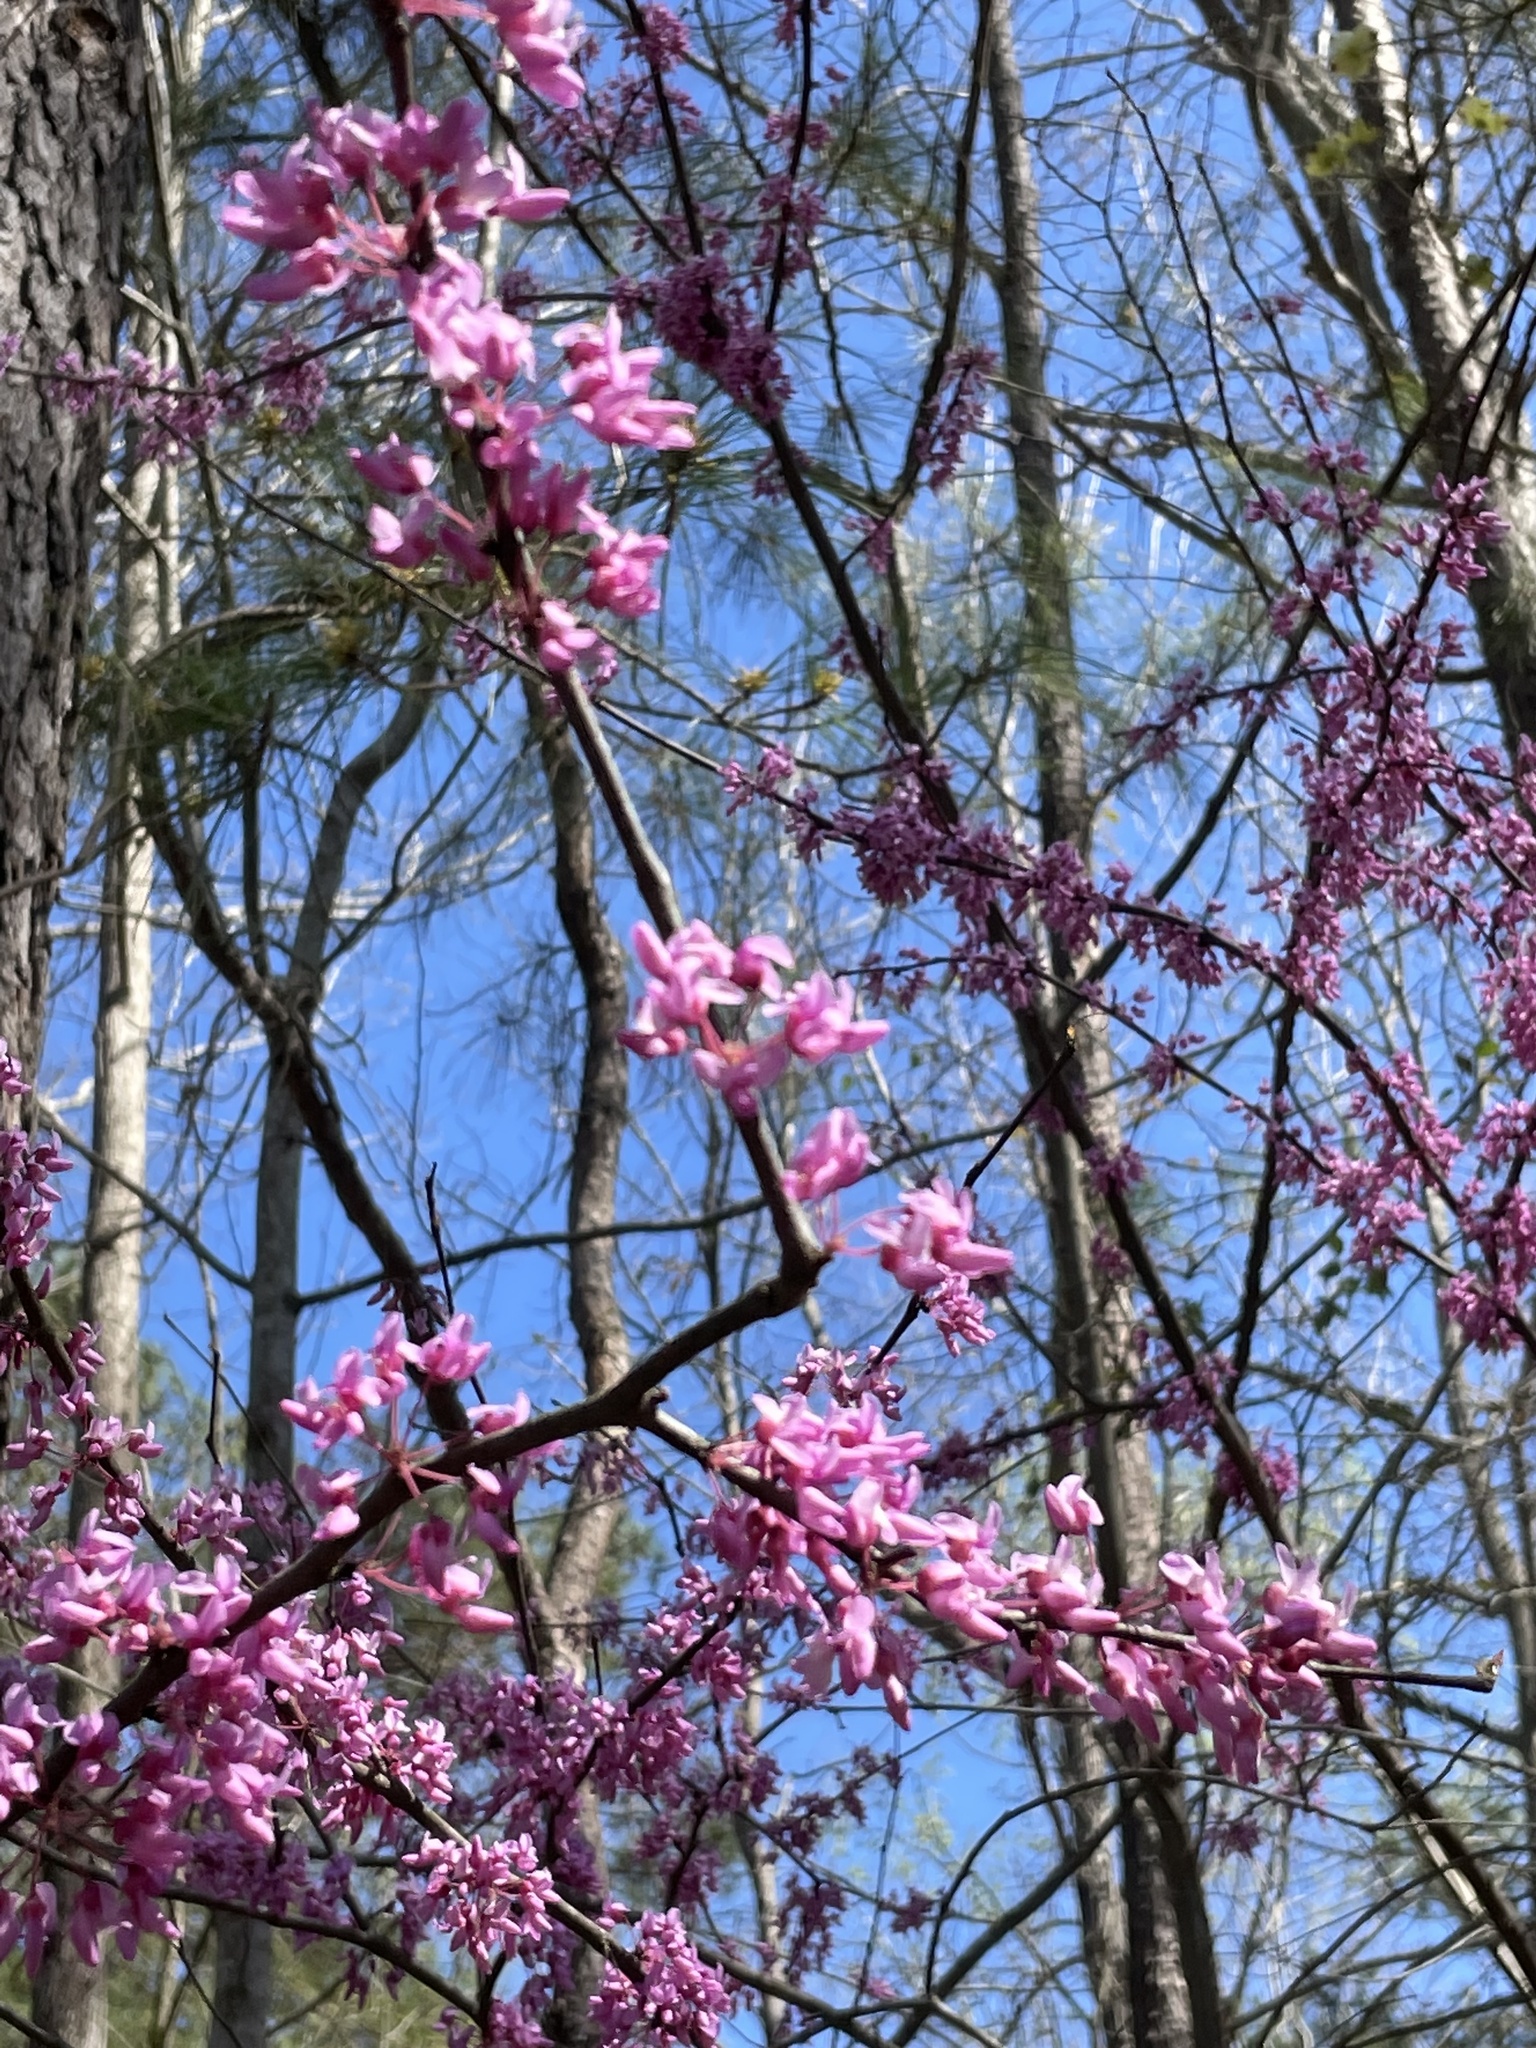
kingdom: Plantae
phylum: Tracheophyta
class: Magnoliopsida
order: Fabales
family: Fabaceae
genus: Cercis
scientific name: Cercis canadensis
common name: Eastern redbud
